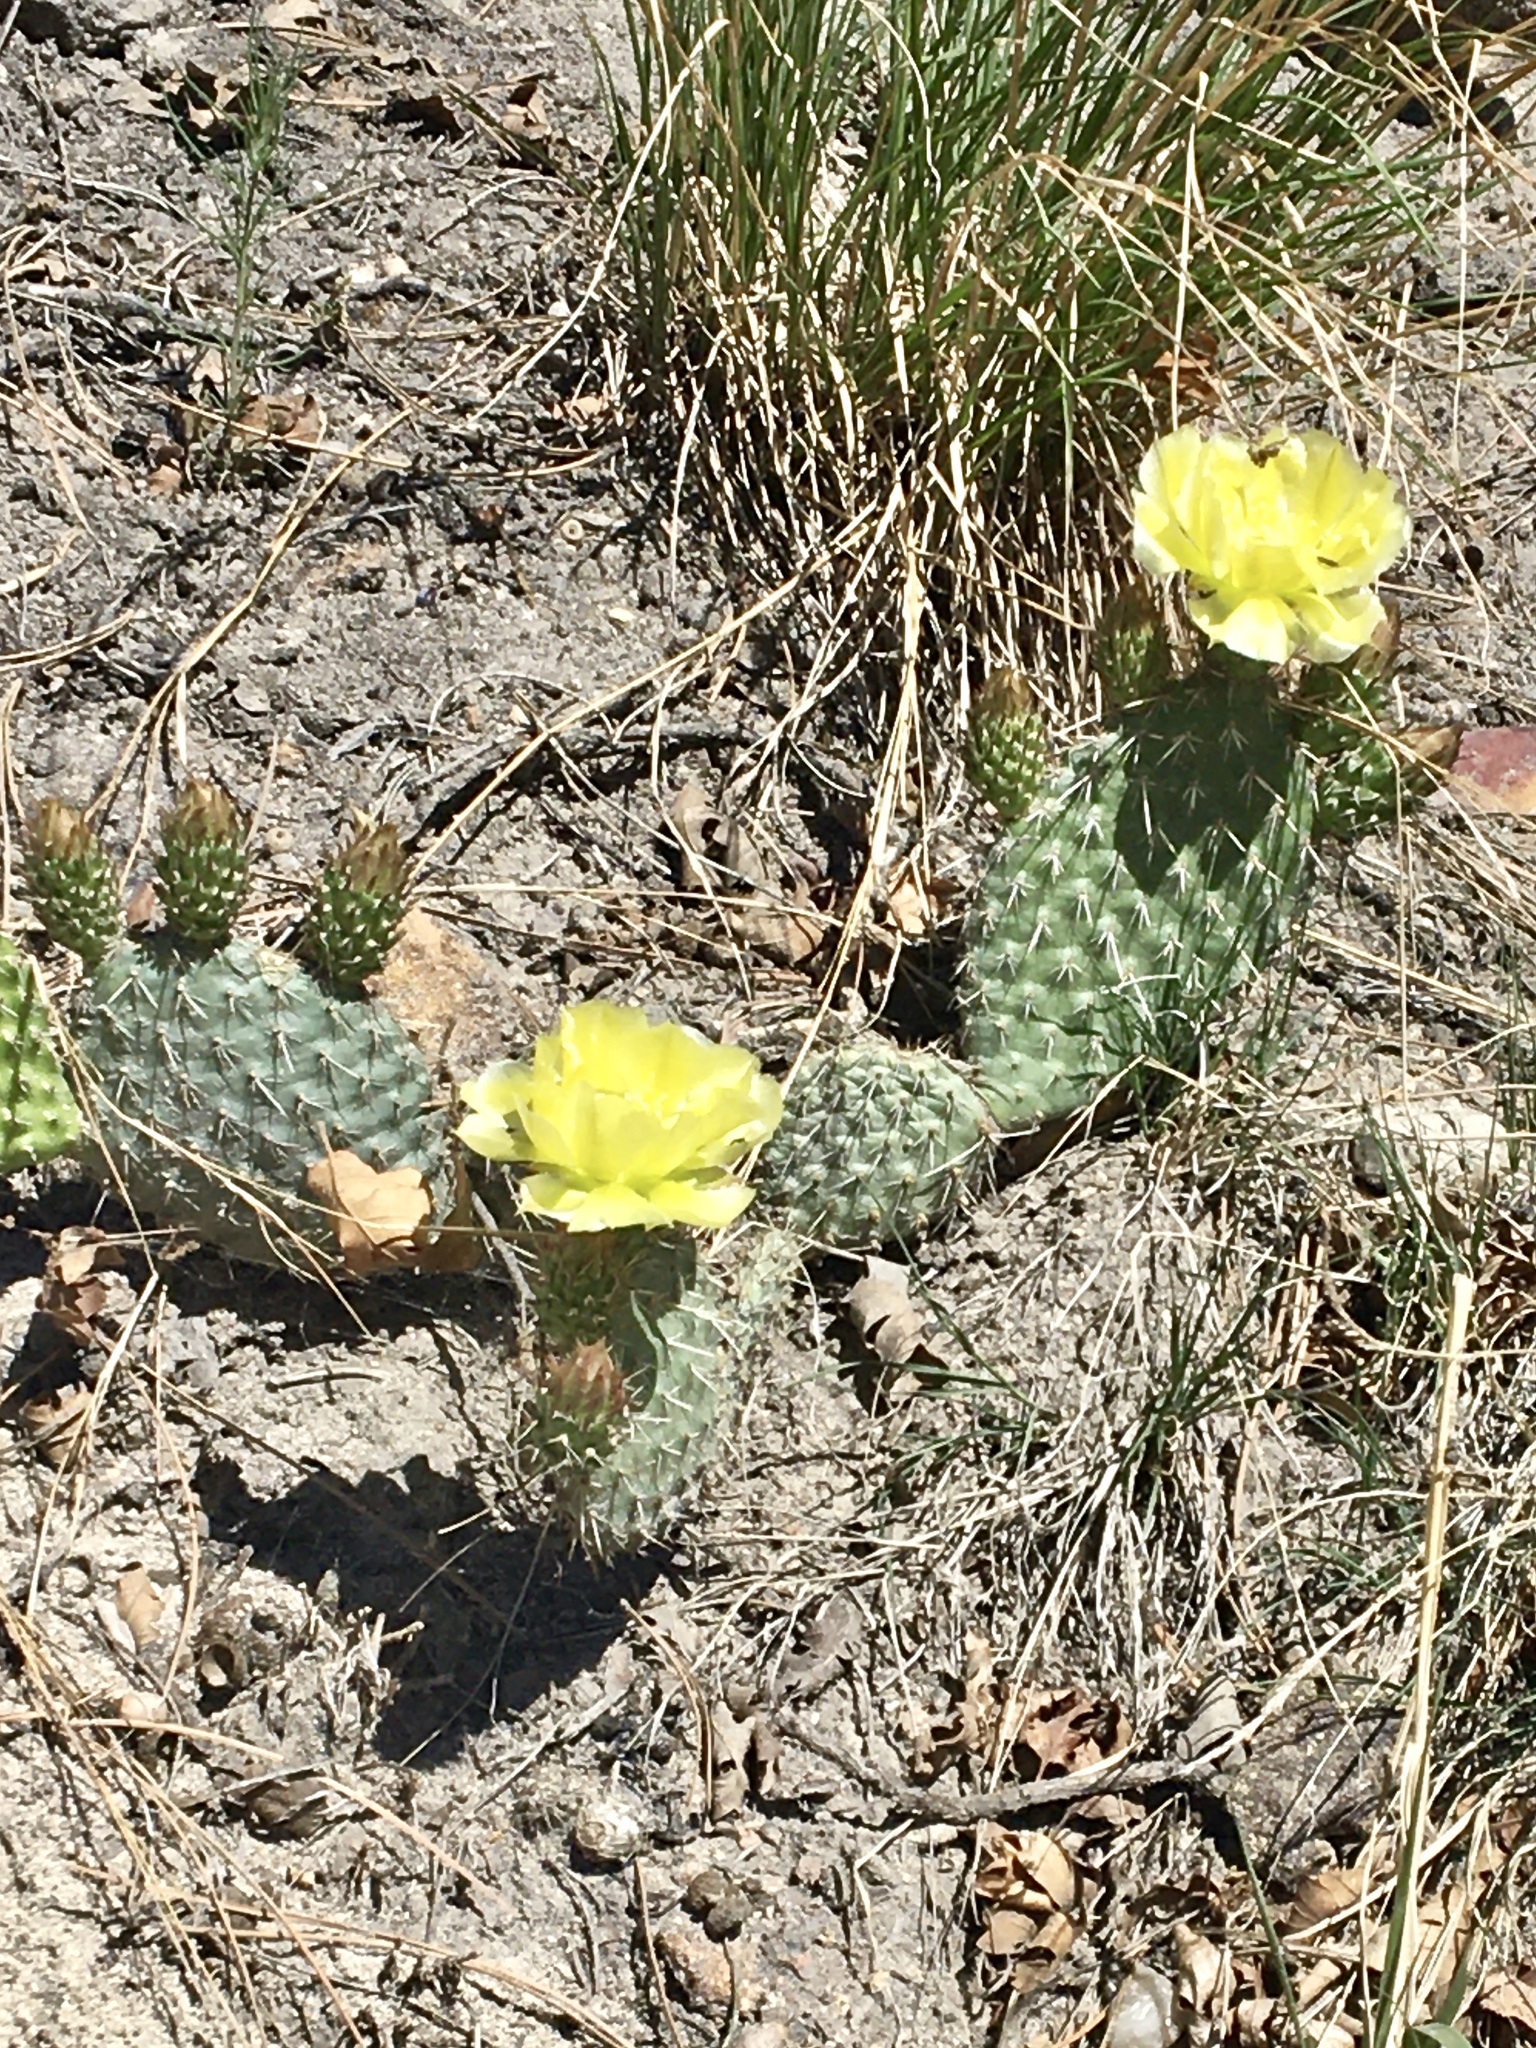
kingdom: Plantae
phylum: Tracheophyta
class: Magnoliopsida
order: Caryophyllales
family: Cactaceae
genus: Opuntia
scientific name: Opuntia polyacantha
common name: Plains prickly-pear
